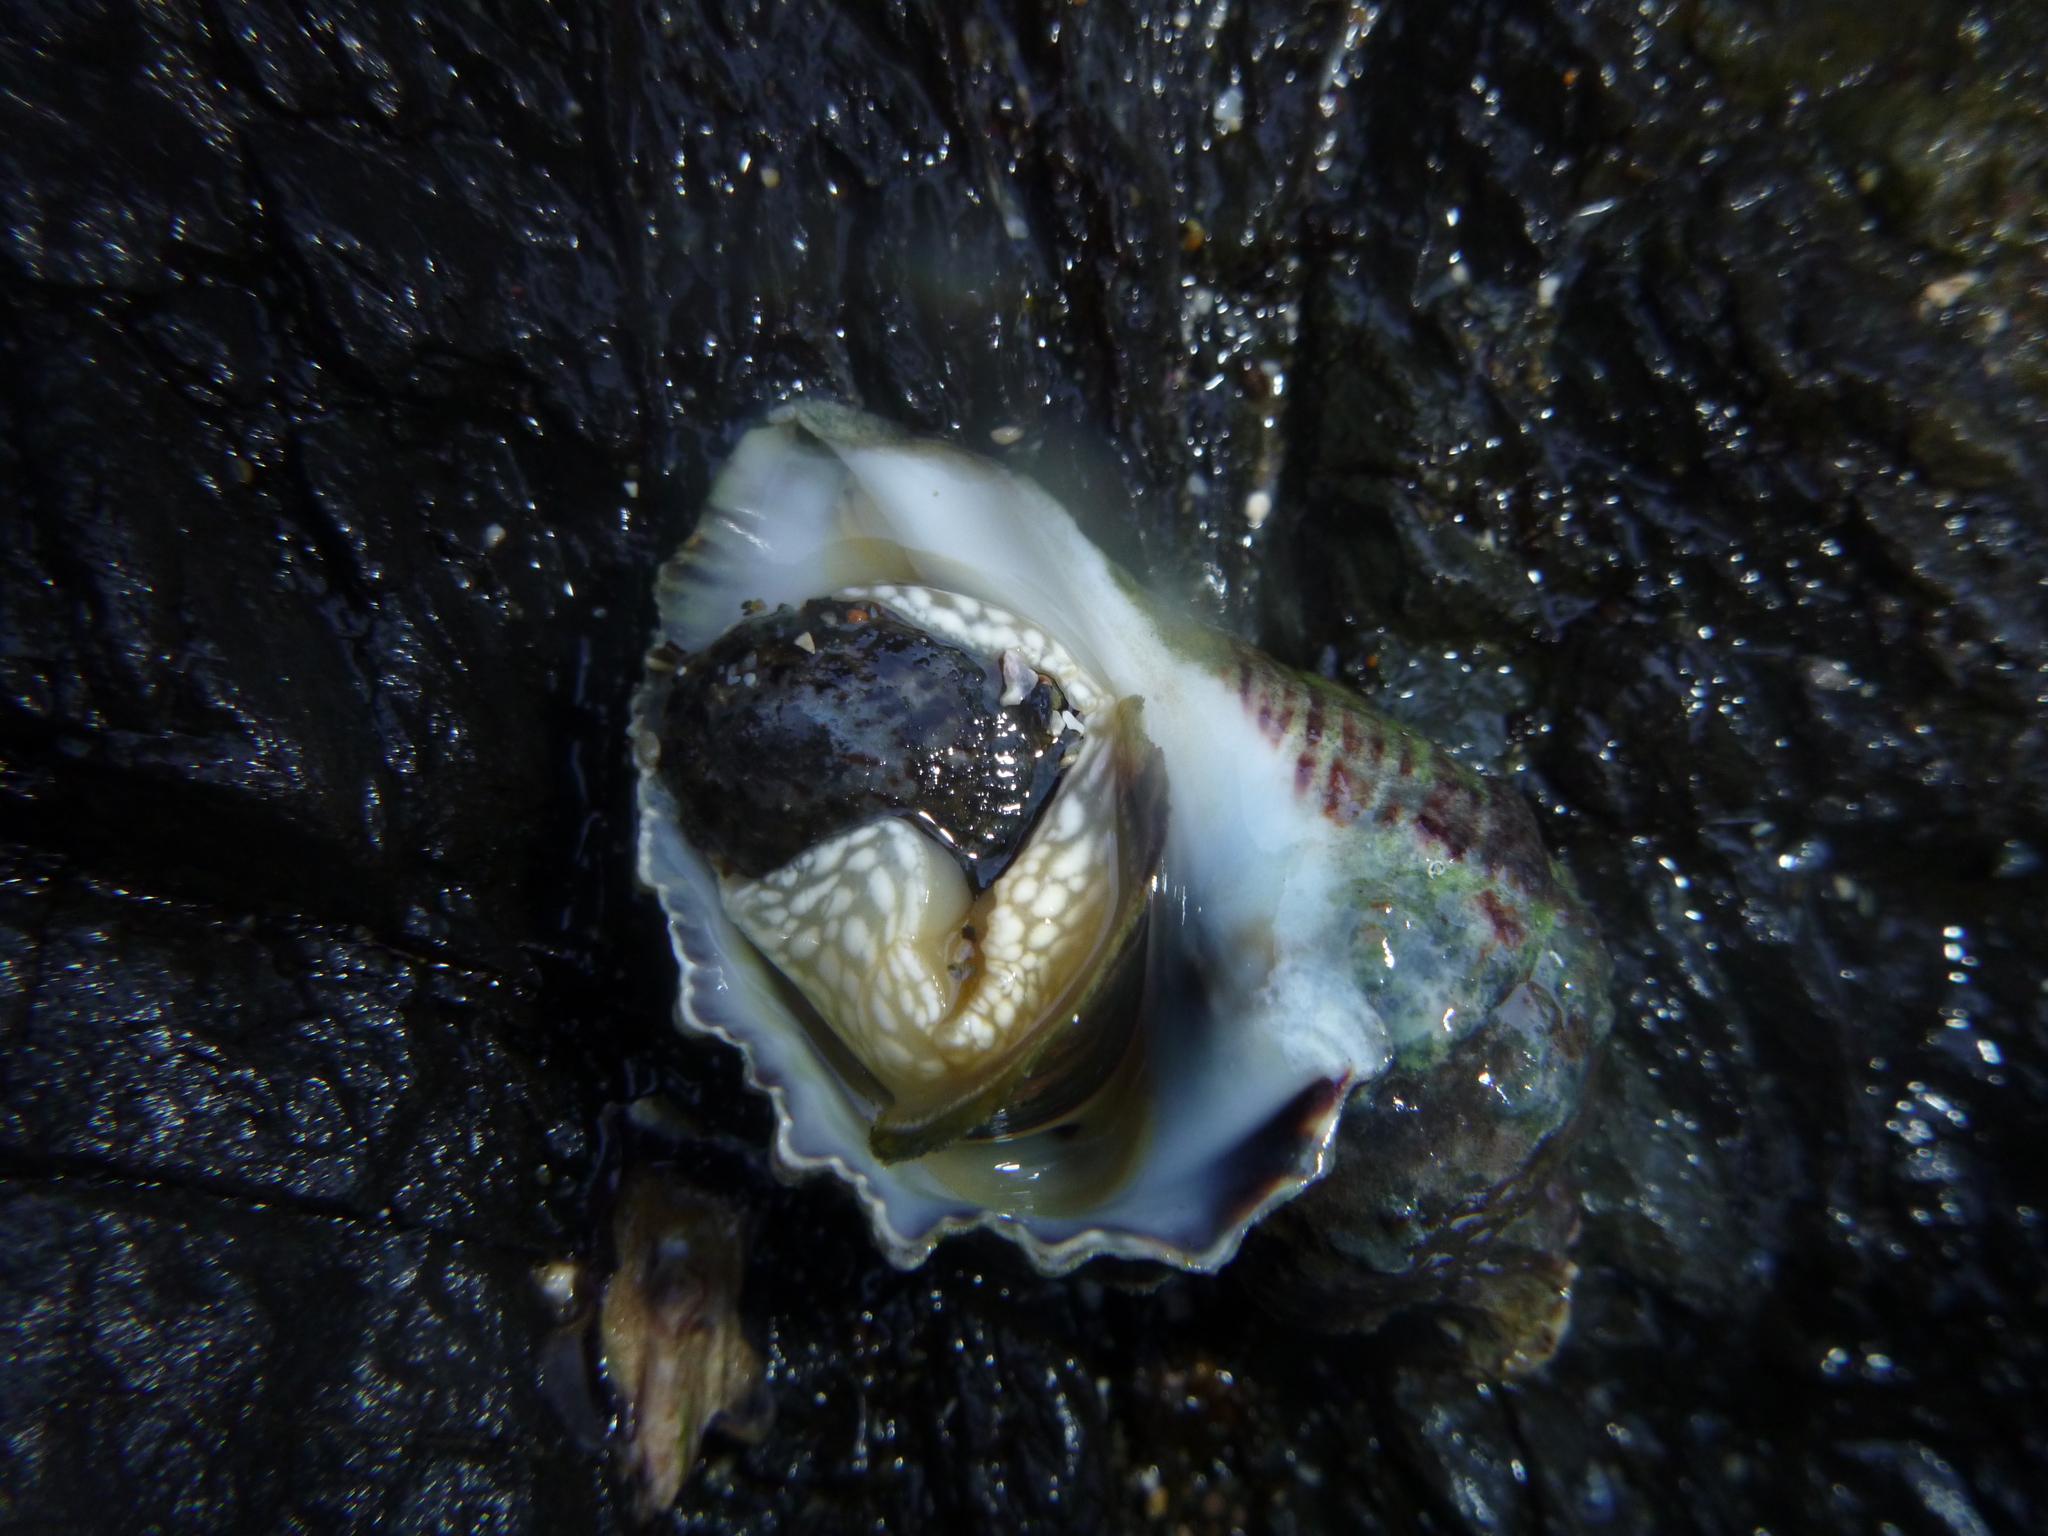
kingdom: Animalia
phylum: Mollusca
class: Gastropoda
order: Neogastropoda
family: Muricidae
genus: Haustrum
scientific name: Haustrum haustorium
